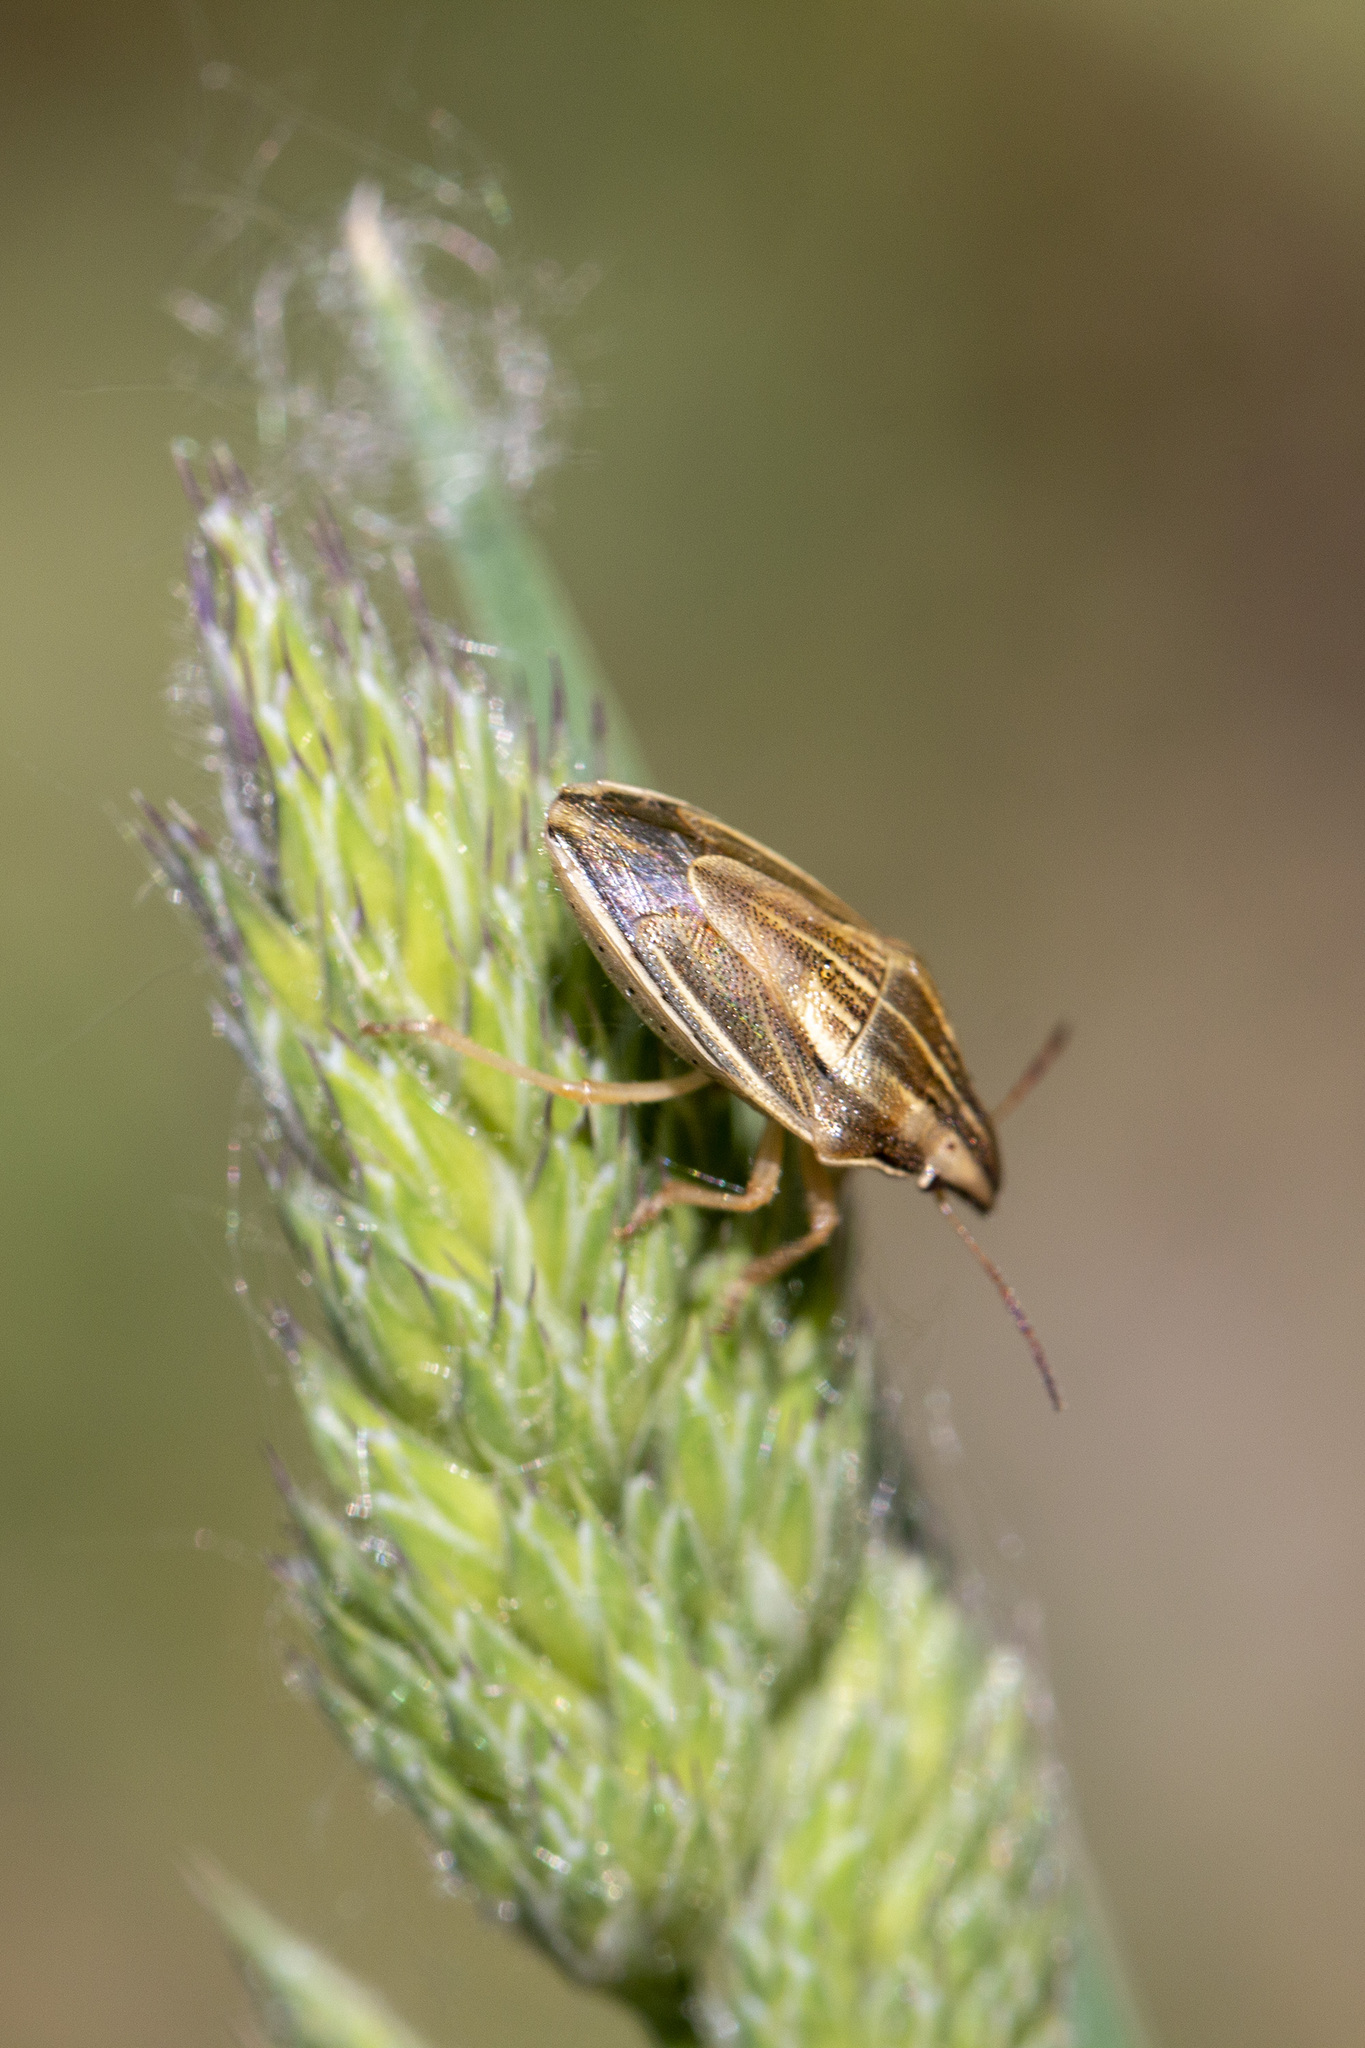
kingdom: Animalia
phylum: Arthropoda
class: Insecta
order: Hemiptera
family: Pentatomidae
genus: Aelia
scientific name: Aelia acuminata
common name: Bishop's mitre
